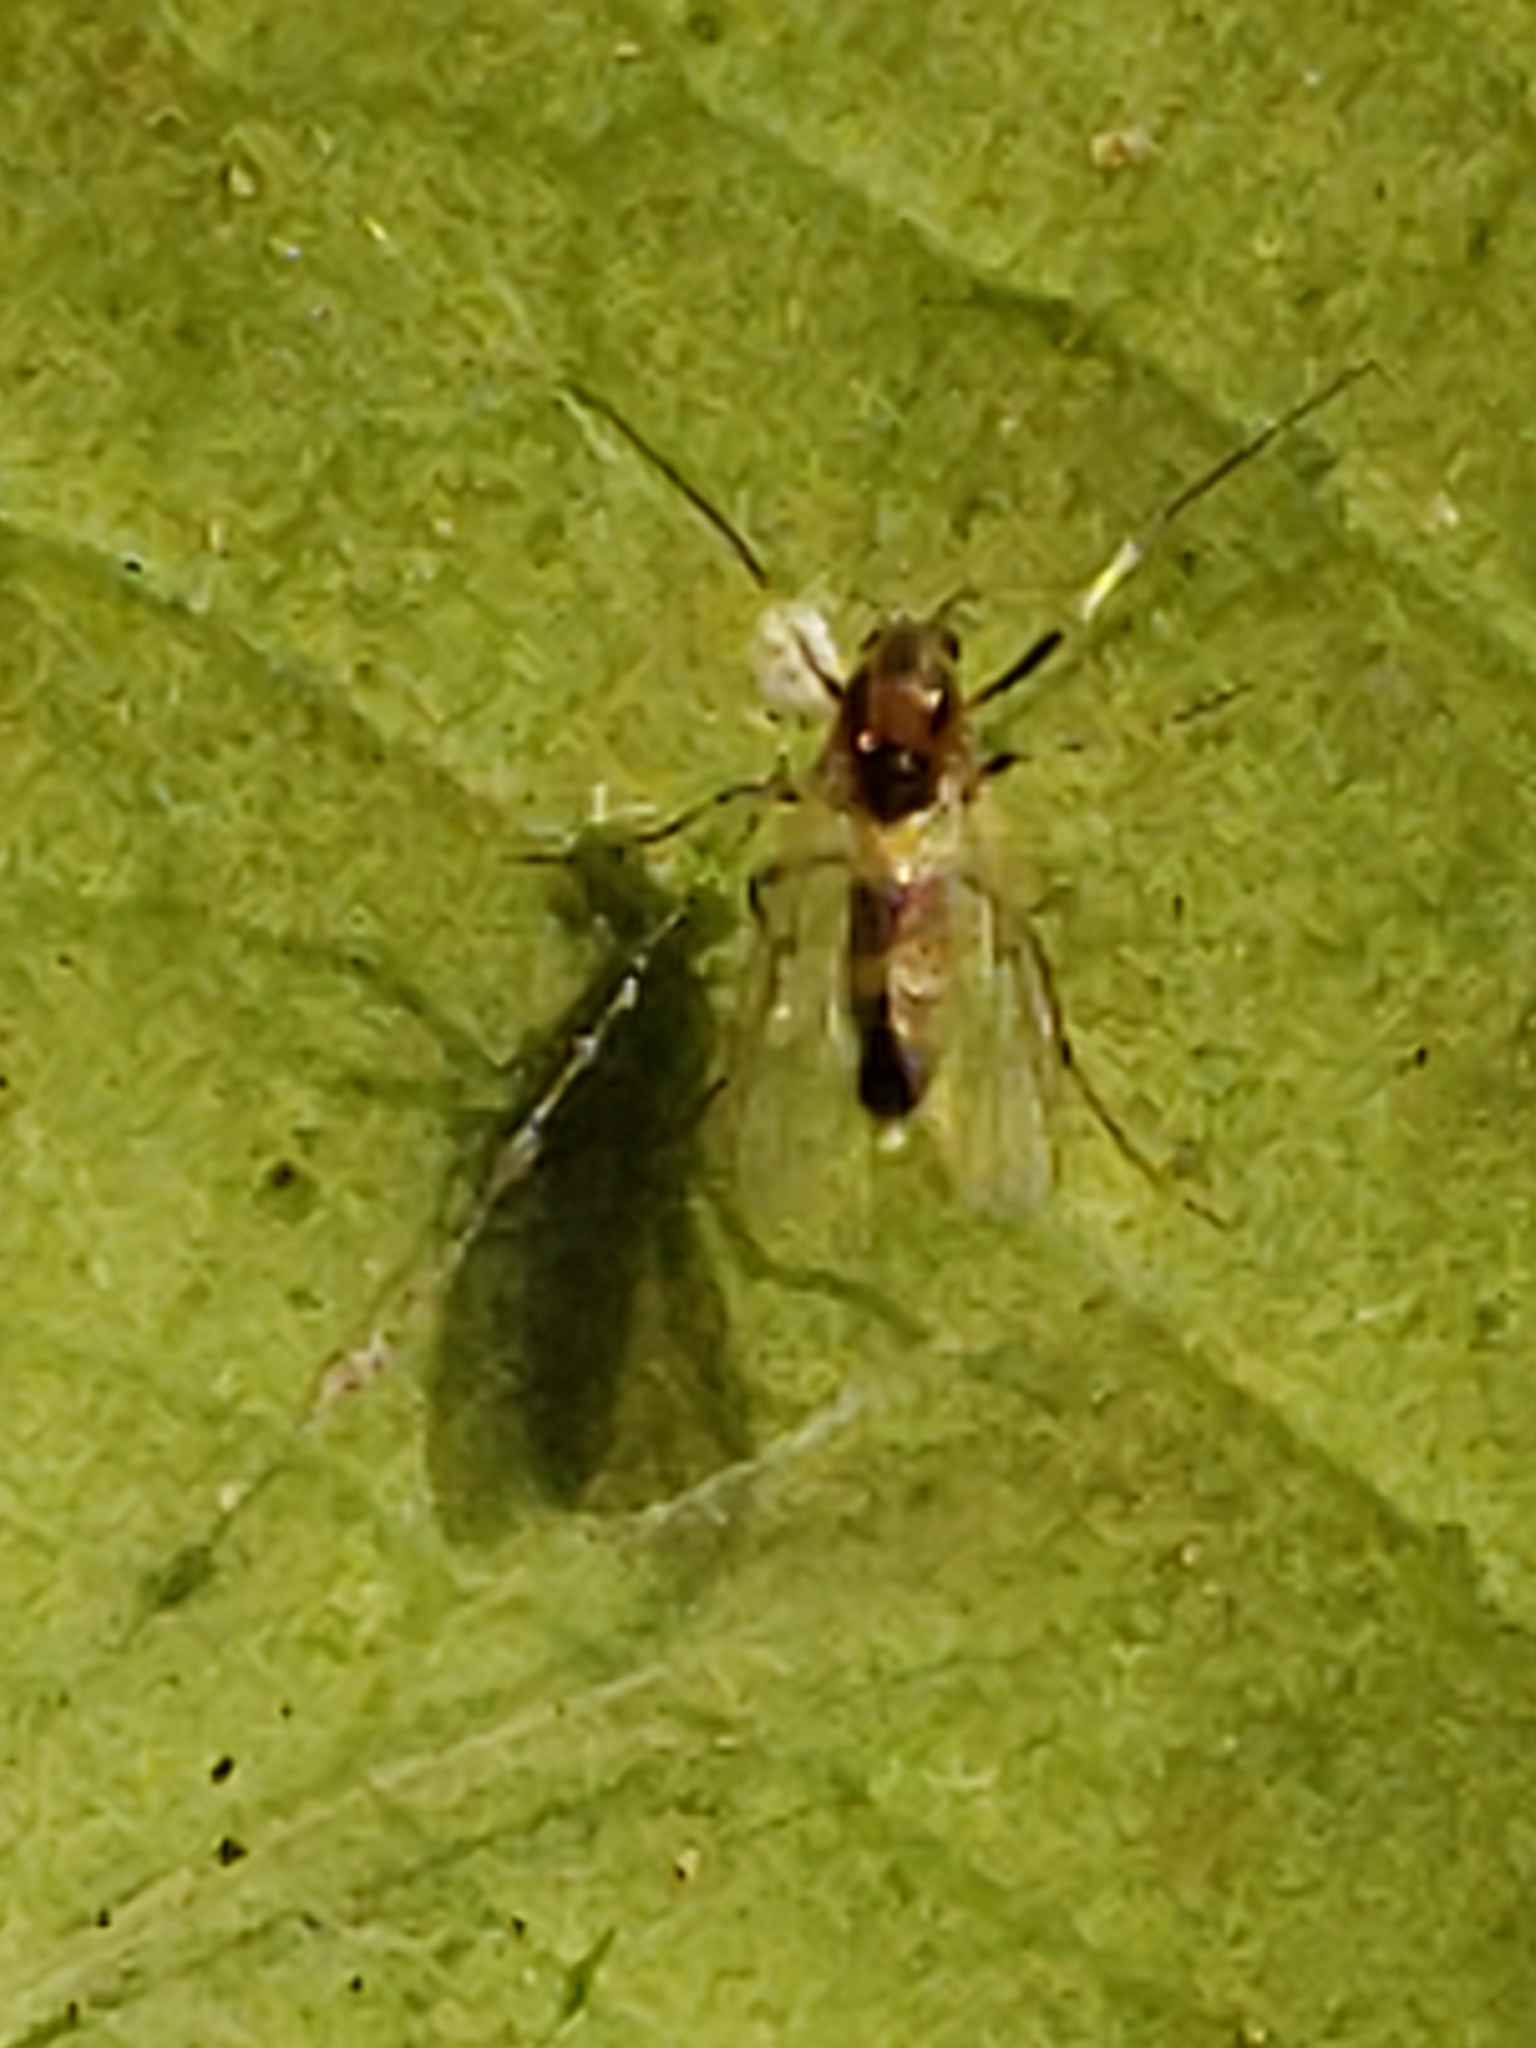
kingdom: Animalia
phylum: Arthropoda
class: Insecta
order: Diptera
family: Chironomidae
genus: Cricotopus
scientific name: Cricotopus triannulatus
